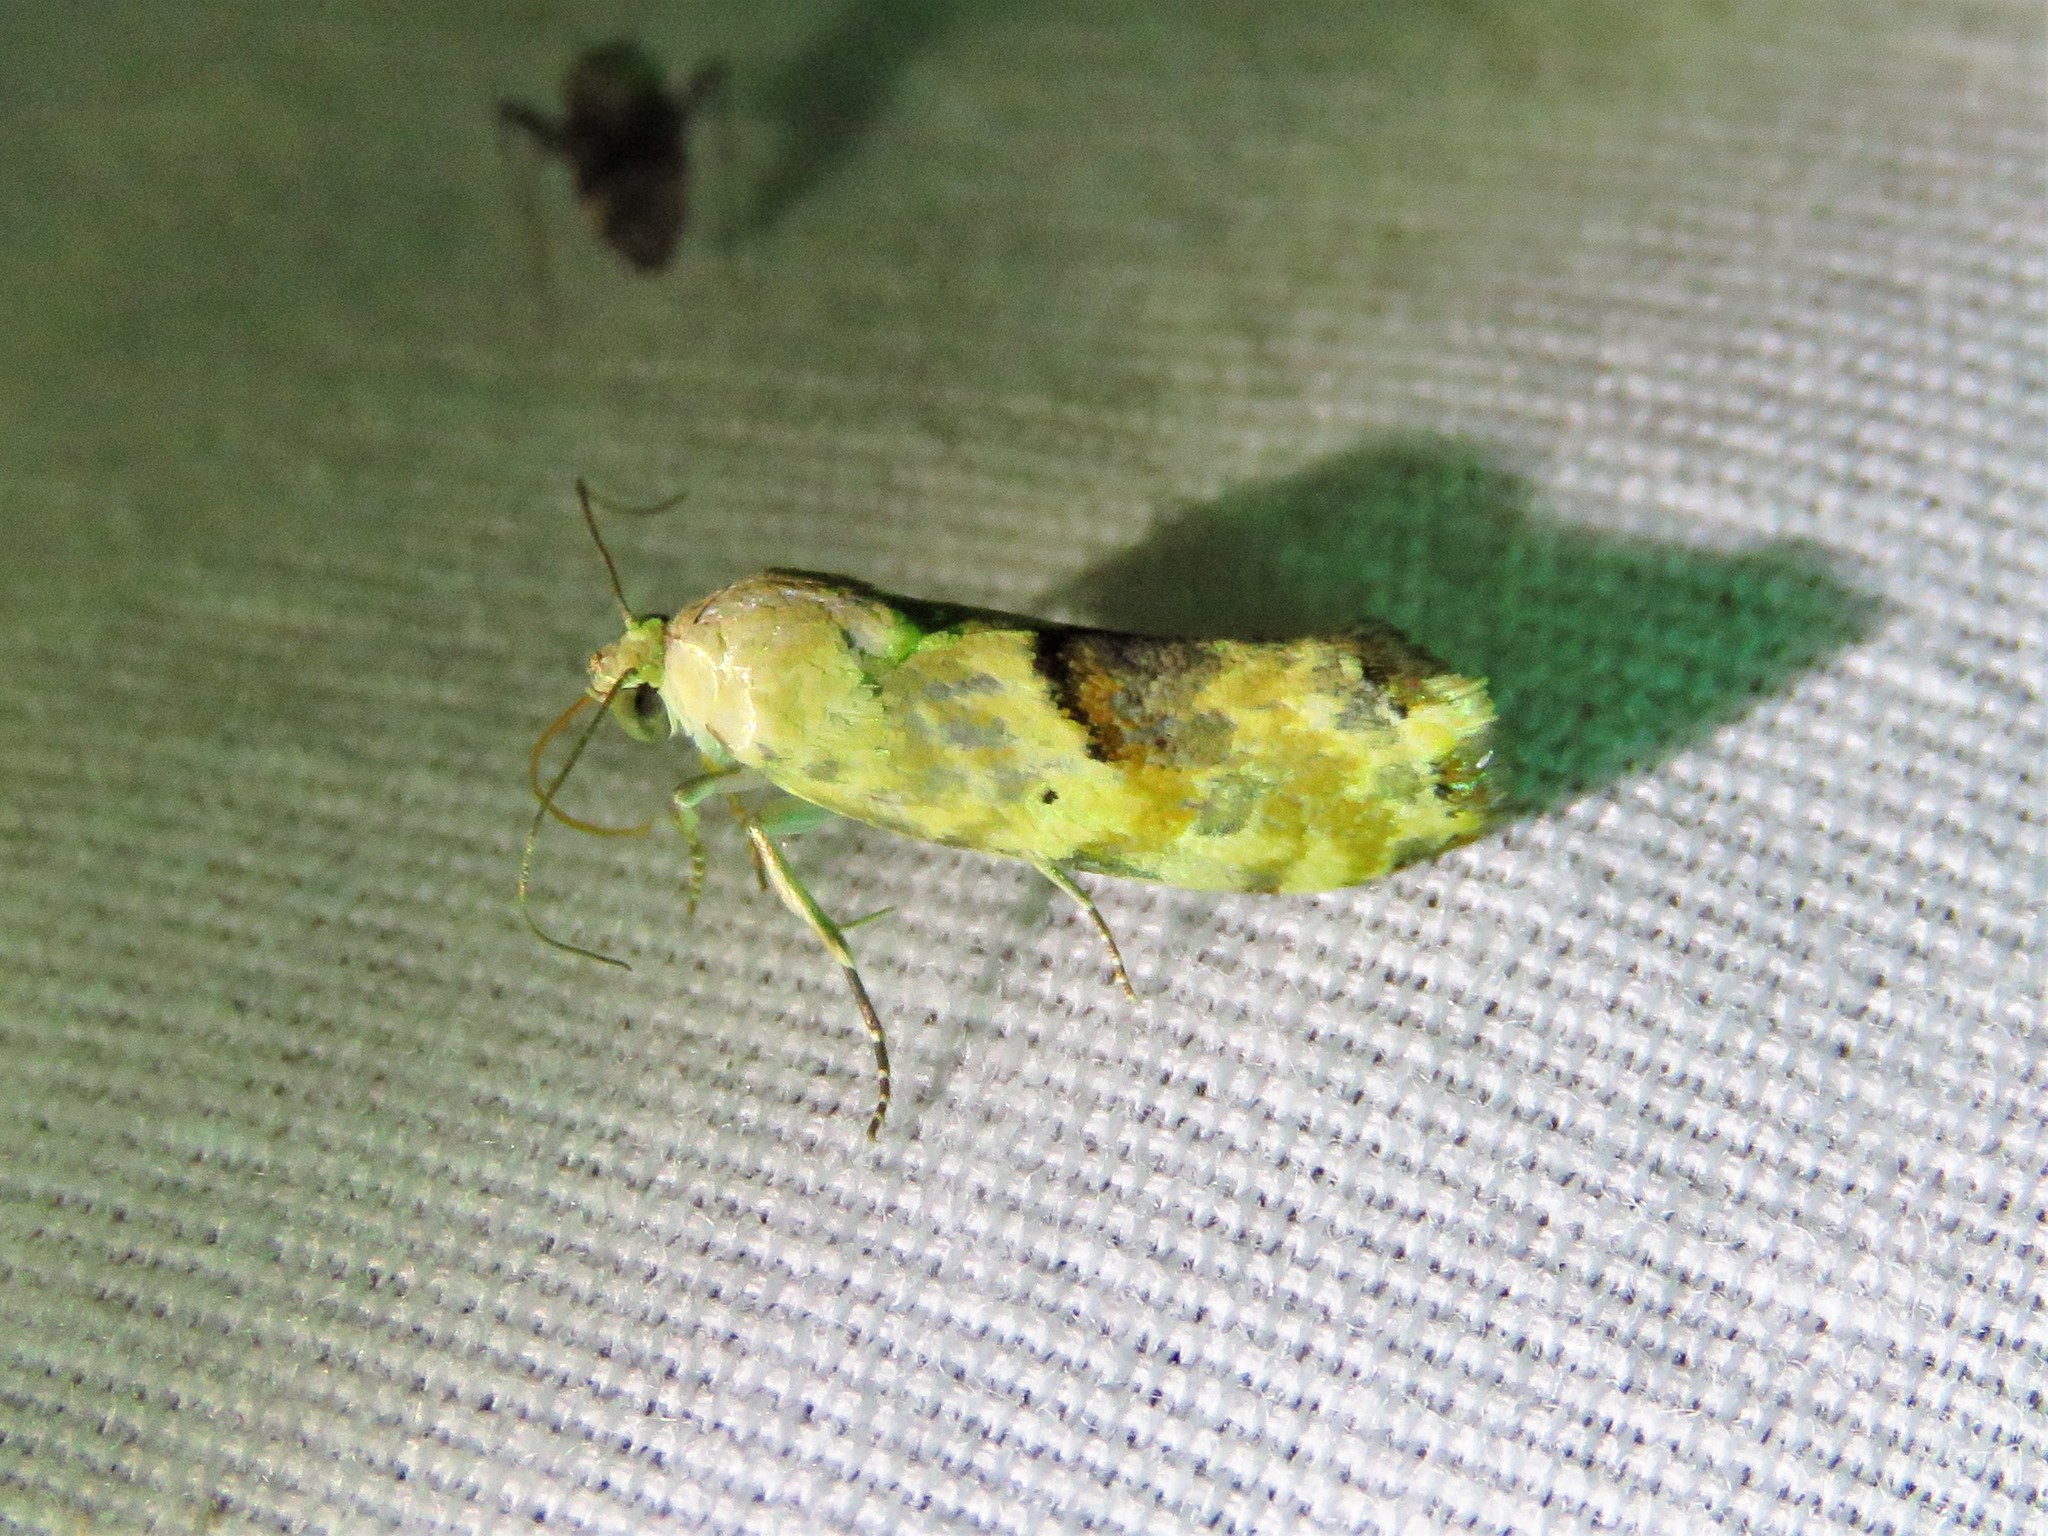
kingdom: Animalia
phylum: Arthropoda
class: Insecta
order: Lepidoptera
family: Noctuidae
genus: Acontia
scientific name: Acontia libedis
